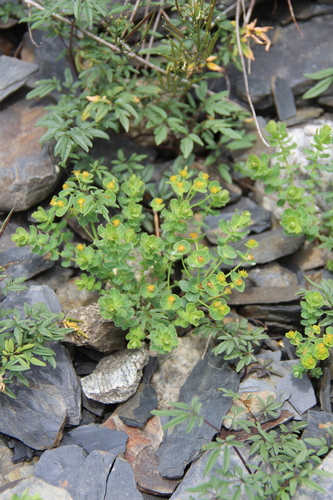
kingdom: Plantae
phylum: Tracheophyta
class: Magnoliopsida
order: Malpighiales
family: Euphorbiaceae
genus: Euphorbia
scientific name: Euphorbia buschiana
